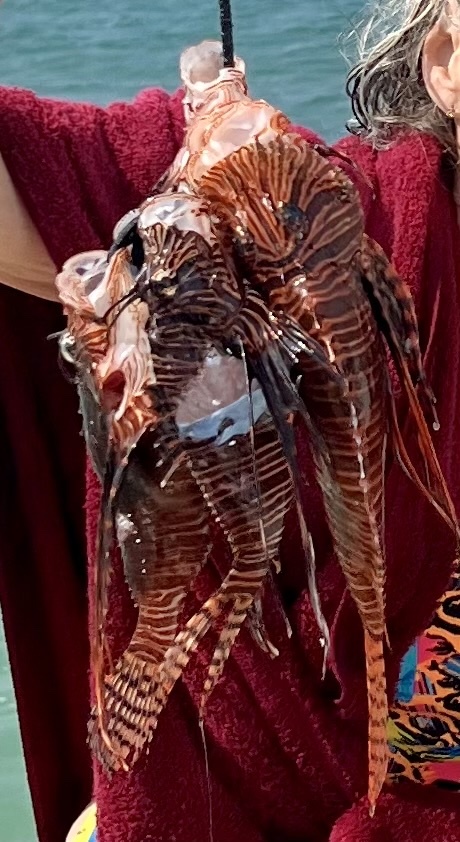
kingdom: Animalia
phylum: Chordata
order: Scorpaeniformes
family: Scorpaenidae
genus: Pterois
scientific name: Pterois volitans
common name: Lionfish
